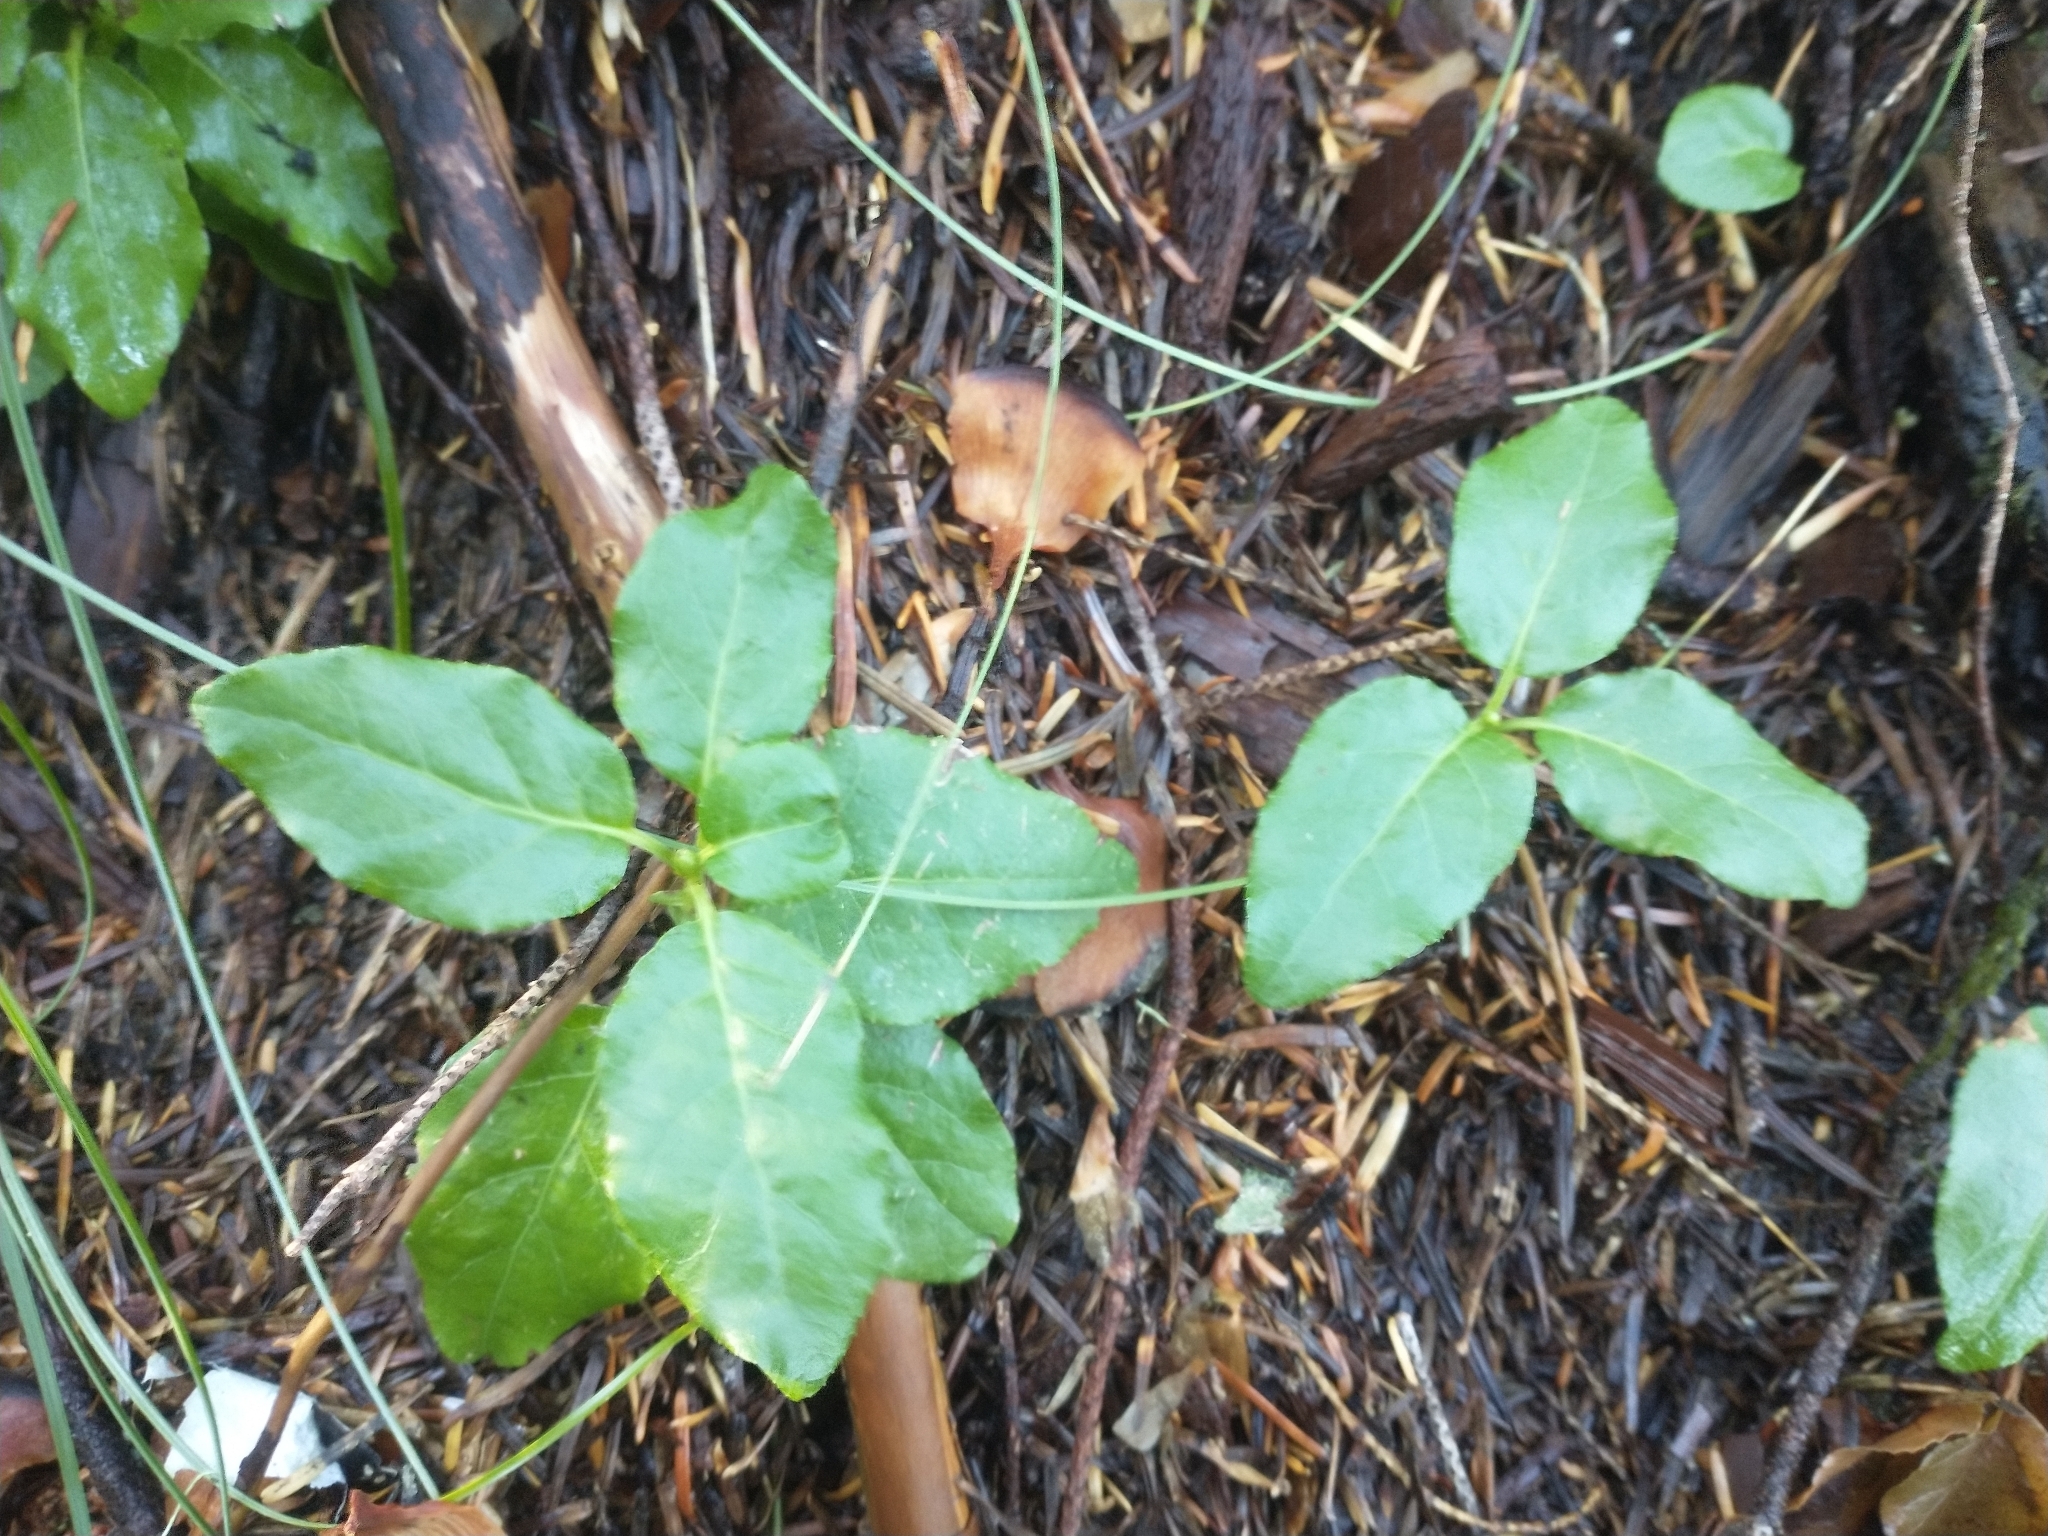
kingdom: Plantae
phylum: Tracheophyta
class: Magnoliopsida
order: Ericales
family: Ericaceae
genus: Orthilia
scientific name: Orthilia secunda
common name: One-sided orthilia
